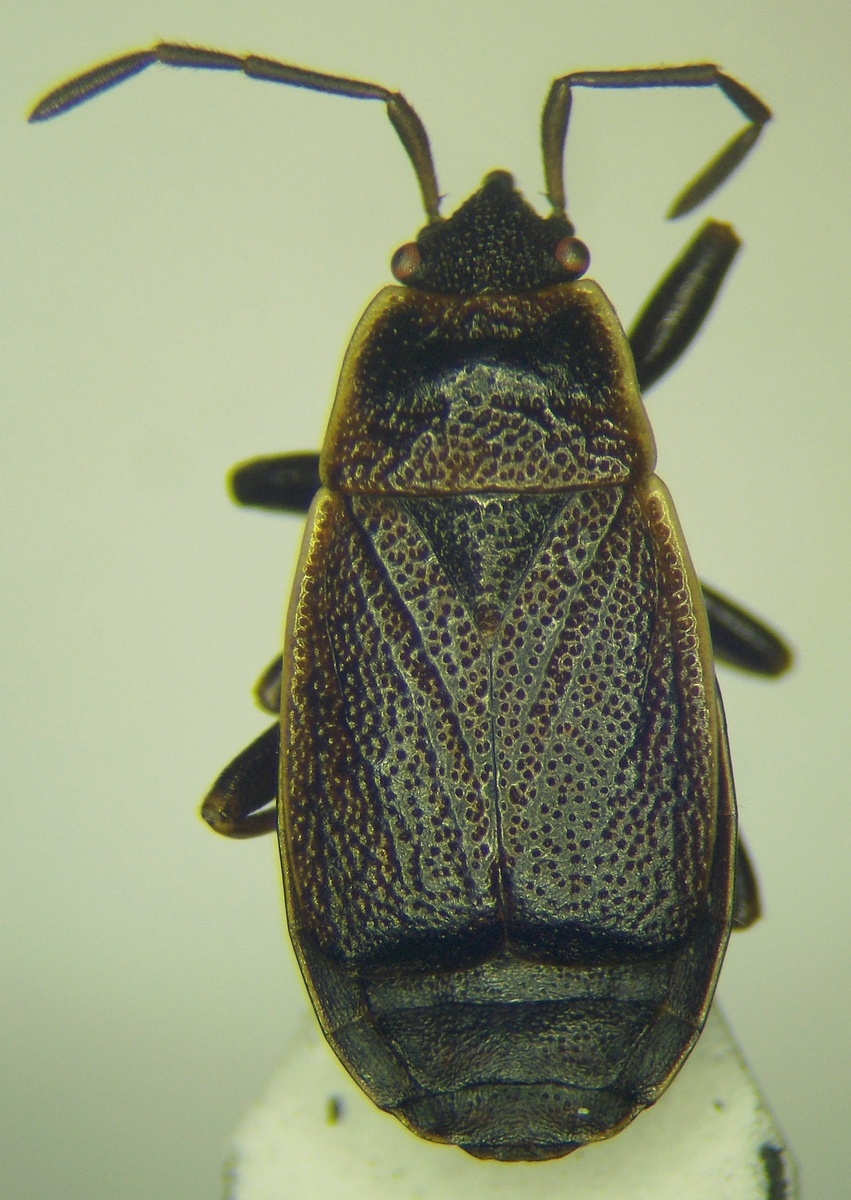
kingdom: Animalia
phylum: Arthropoda
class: Insecta
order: Hemiptera
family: Pyrrhocoridae
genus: Pyrrhocoris
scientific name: Pyrrhocoris marginatus
